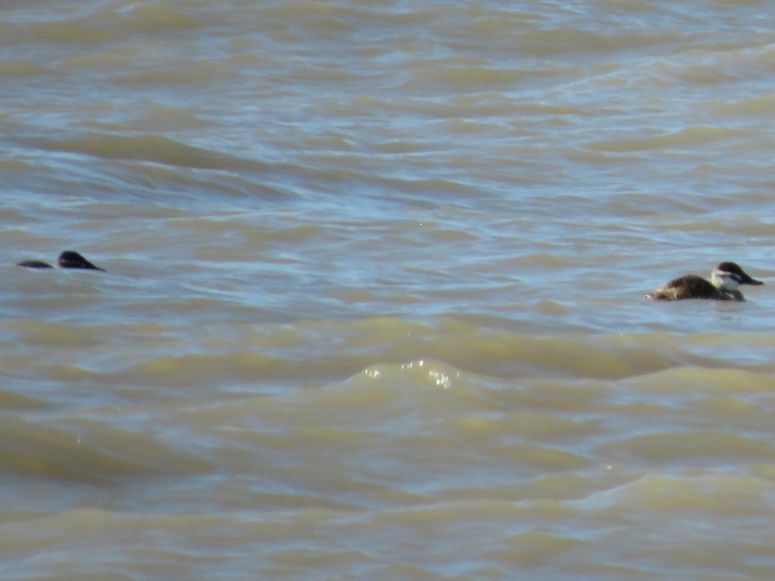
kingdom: Animalia
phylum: Chordata
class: Aves
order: Anseriformes
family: Anatidae
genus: Oxyura
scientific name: Oxyura vittata
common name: Lake duck
